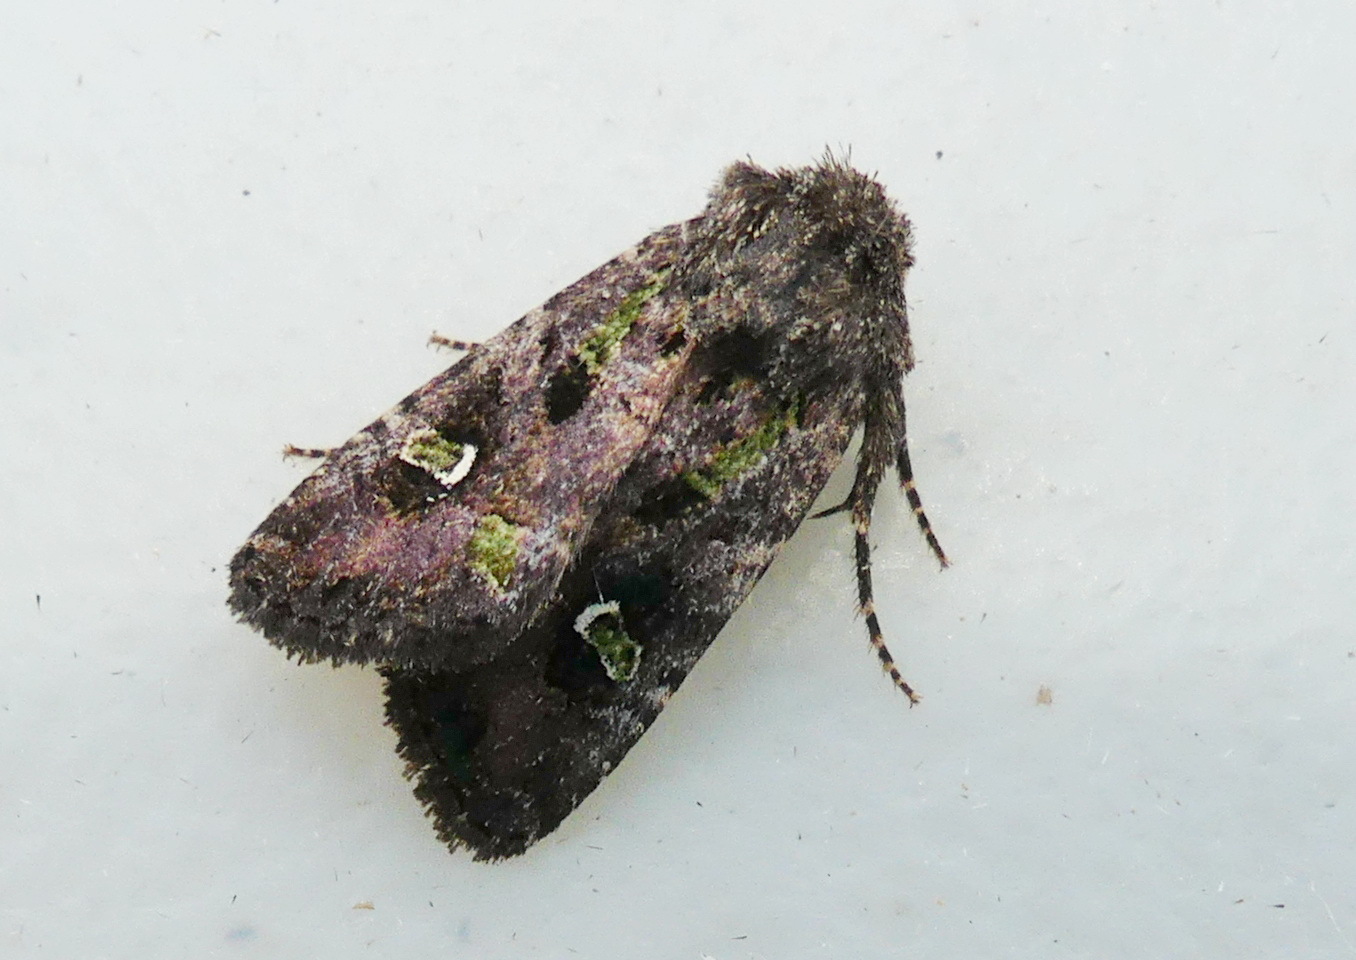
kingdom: Animalia
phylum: Arthropoda
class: Insecta
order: Lepidoptera
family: Noctuidae
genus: Lacinipolia
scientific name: Lacinipolia renigera
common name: Kidney-spotted minor
